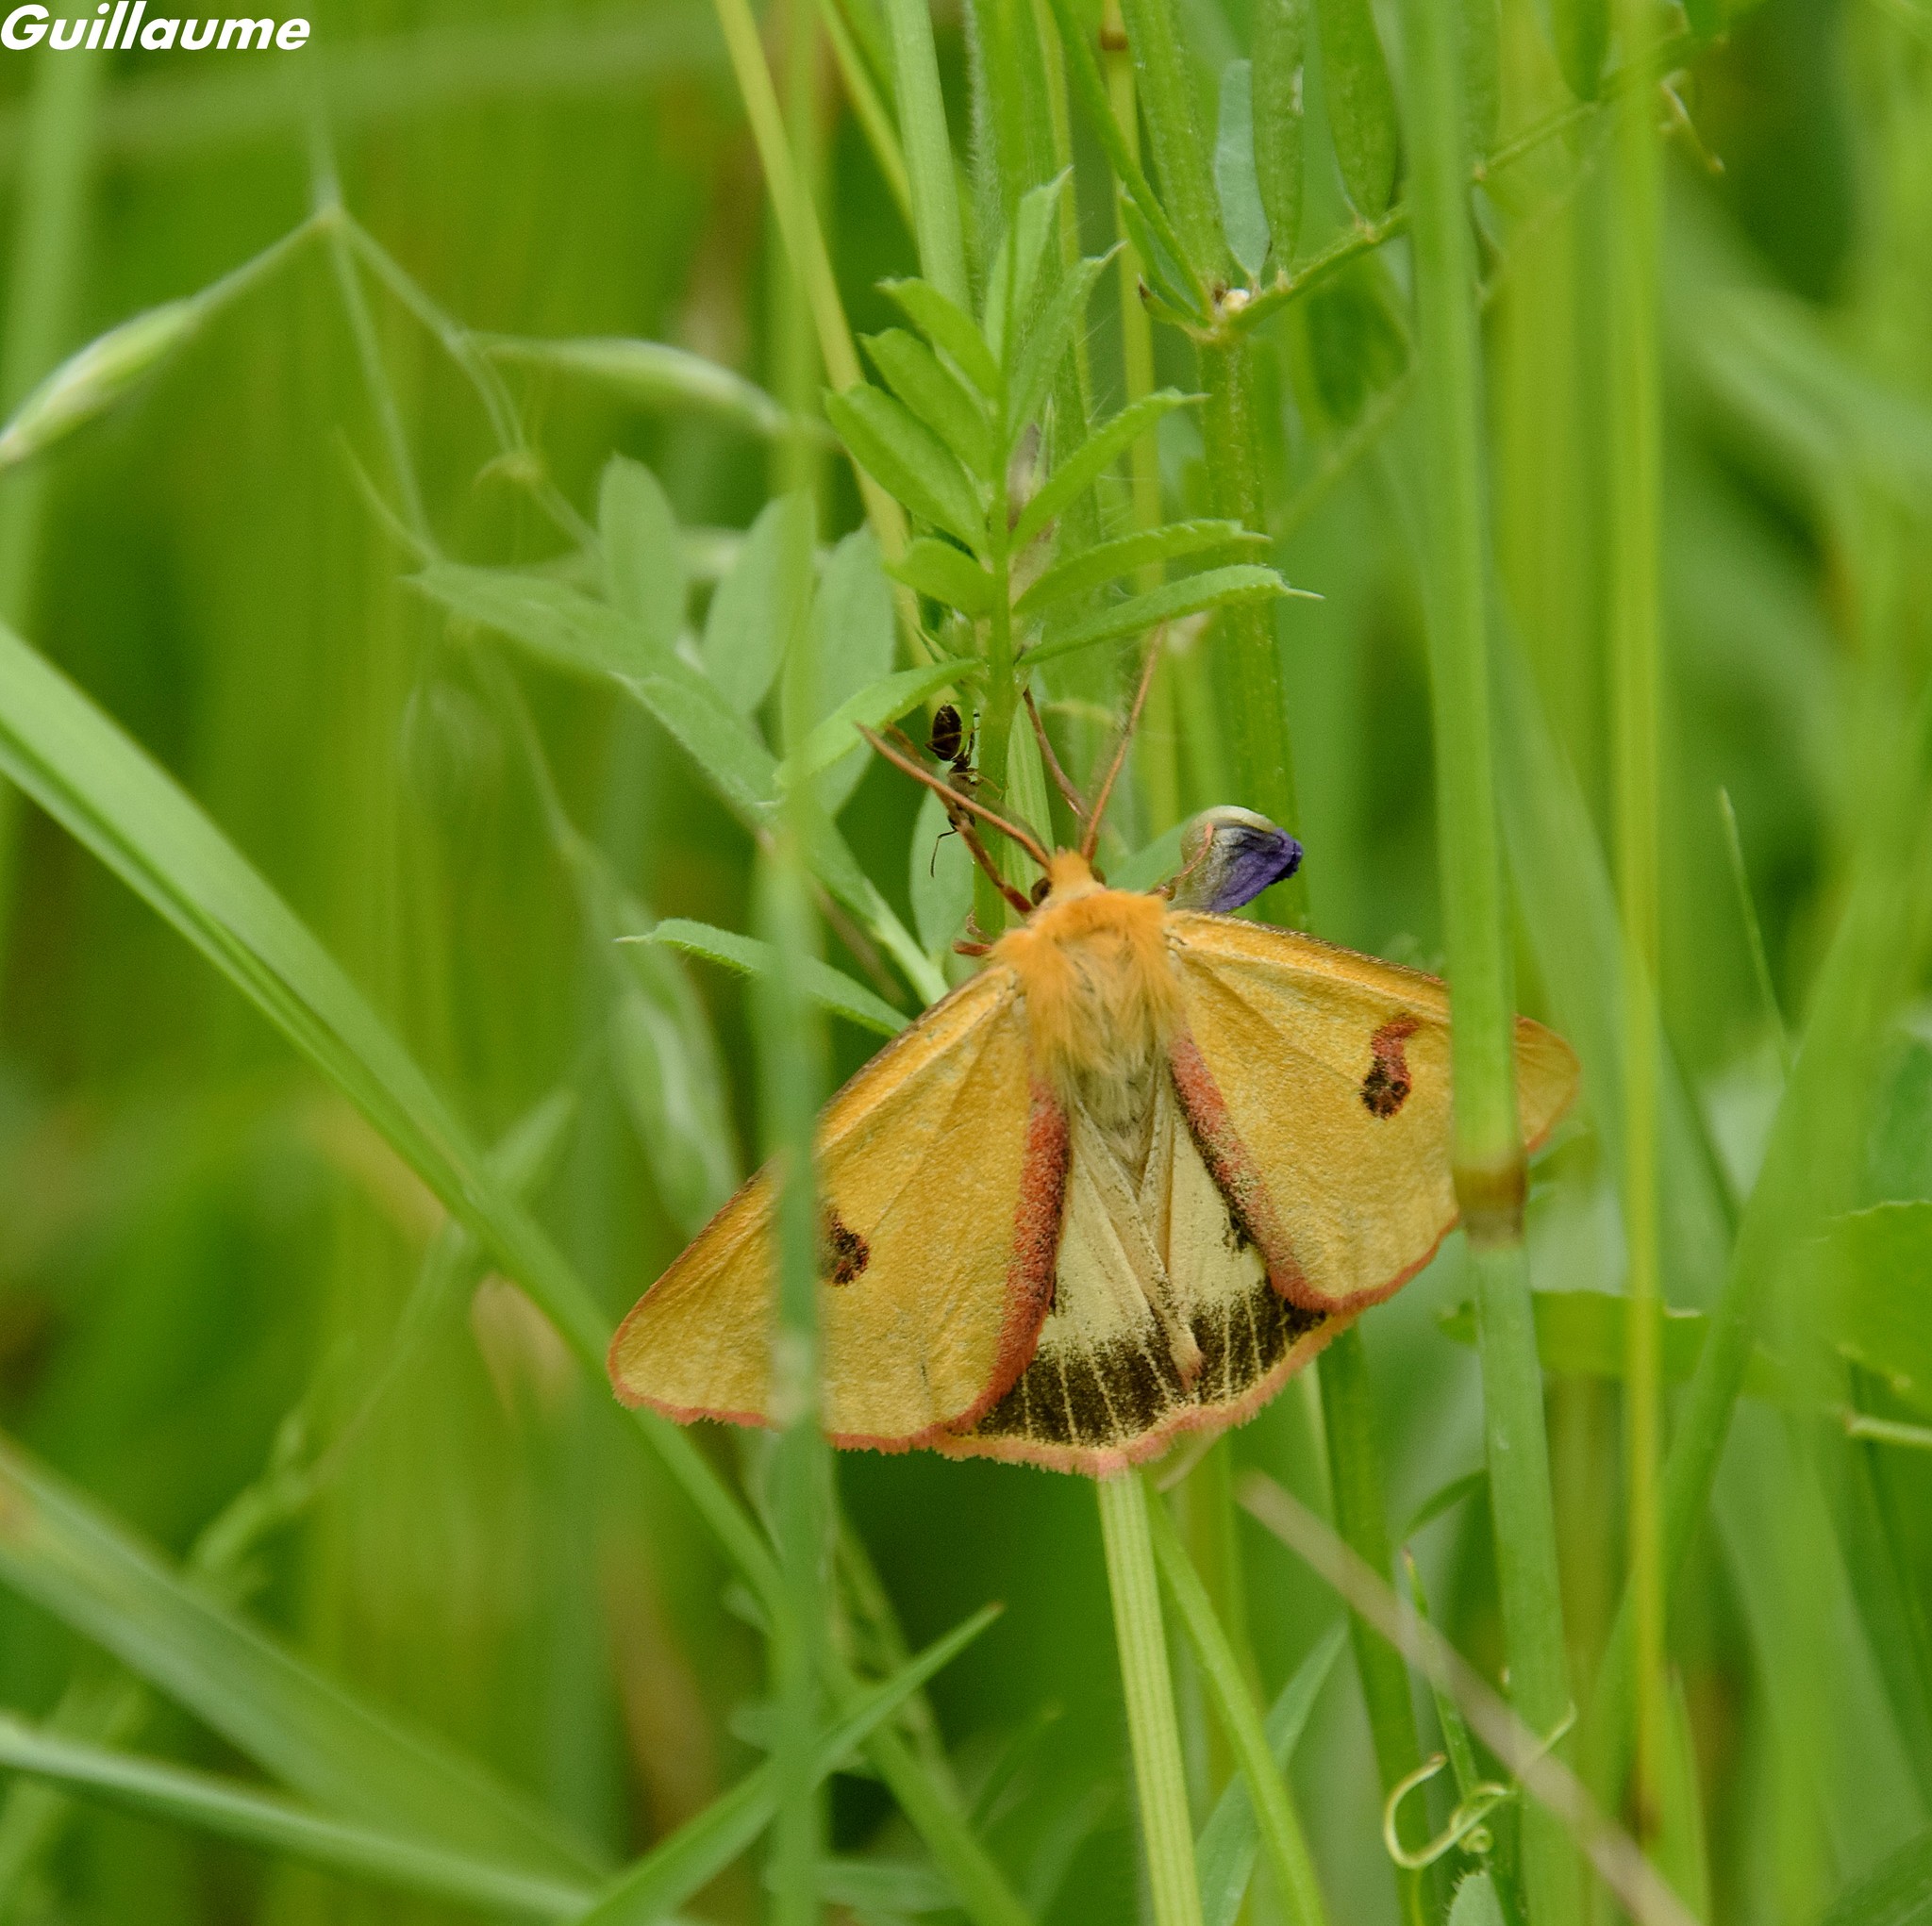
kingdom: Animalia
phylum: Arthropoda
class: Insecta
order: Lepidoptera
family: Erebidae
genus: Diacrisia
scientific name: Diacrisia sannio
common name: Clouded buff
